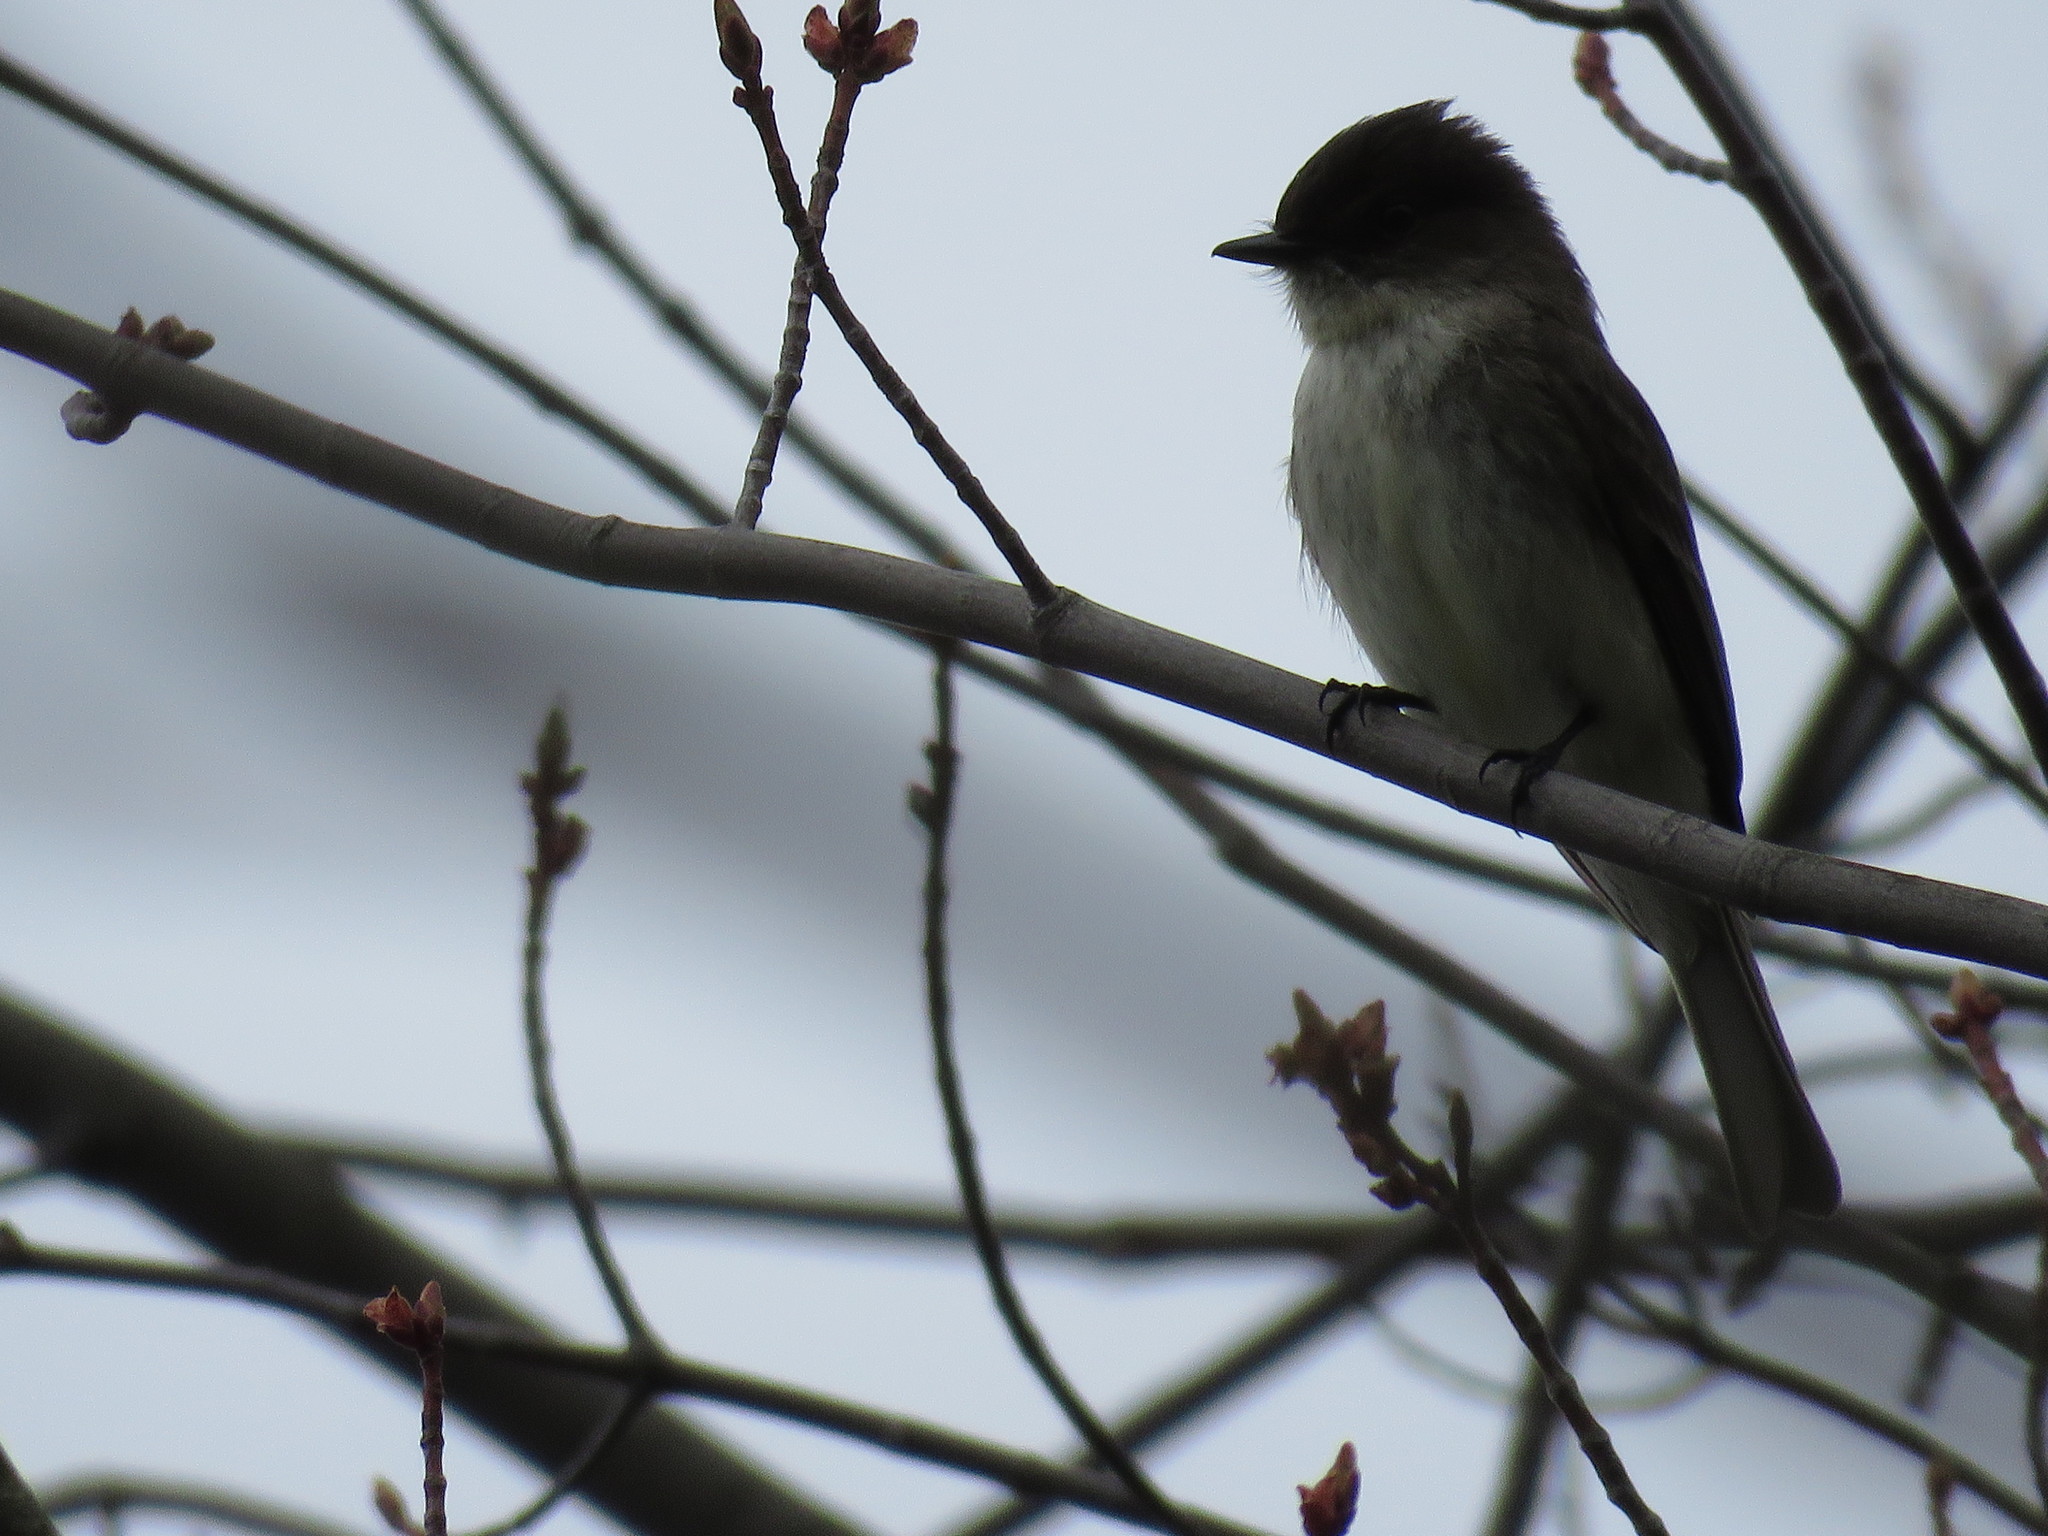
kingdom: Animalia
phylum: Chordata
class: Aves
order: Passeriformes
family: Tyrannidae
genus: Sayornis
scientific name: Sayornis phoebe
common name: Eastern phoebe
